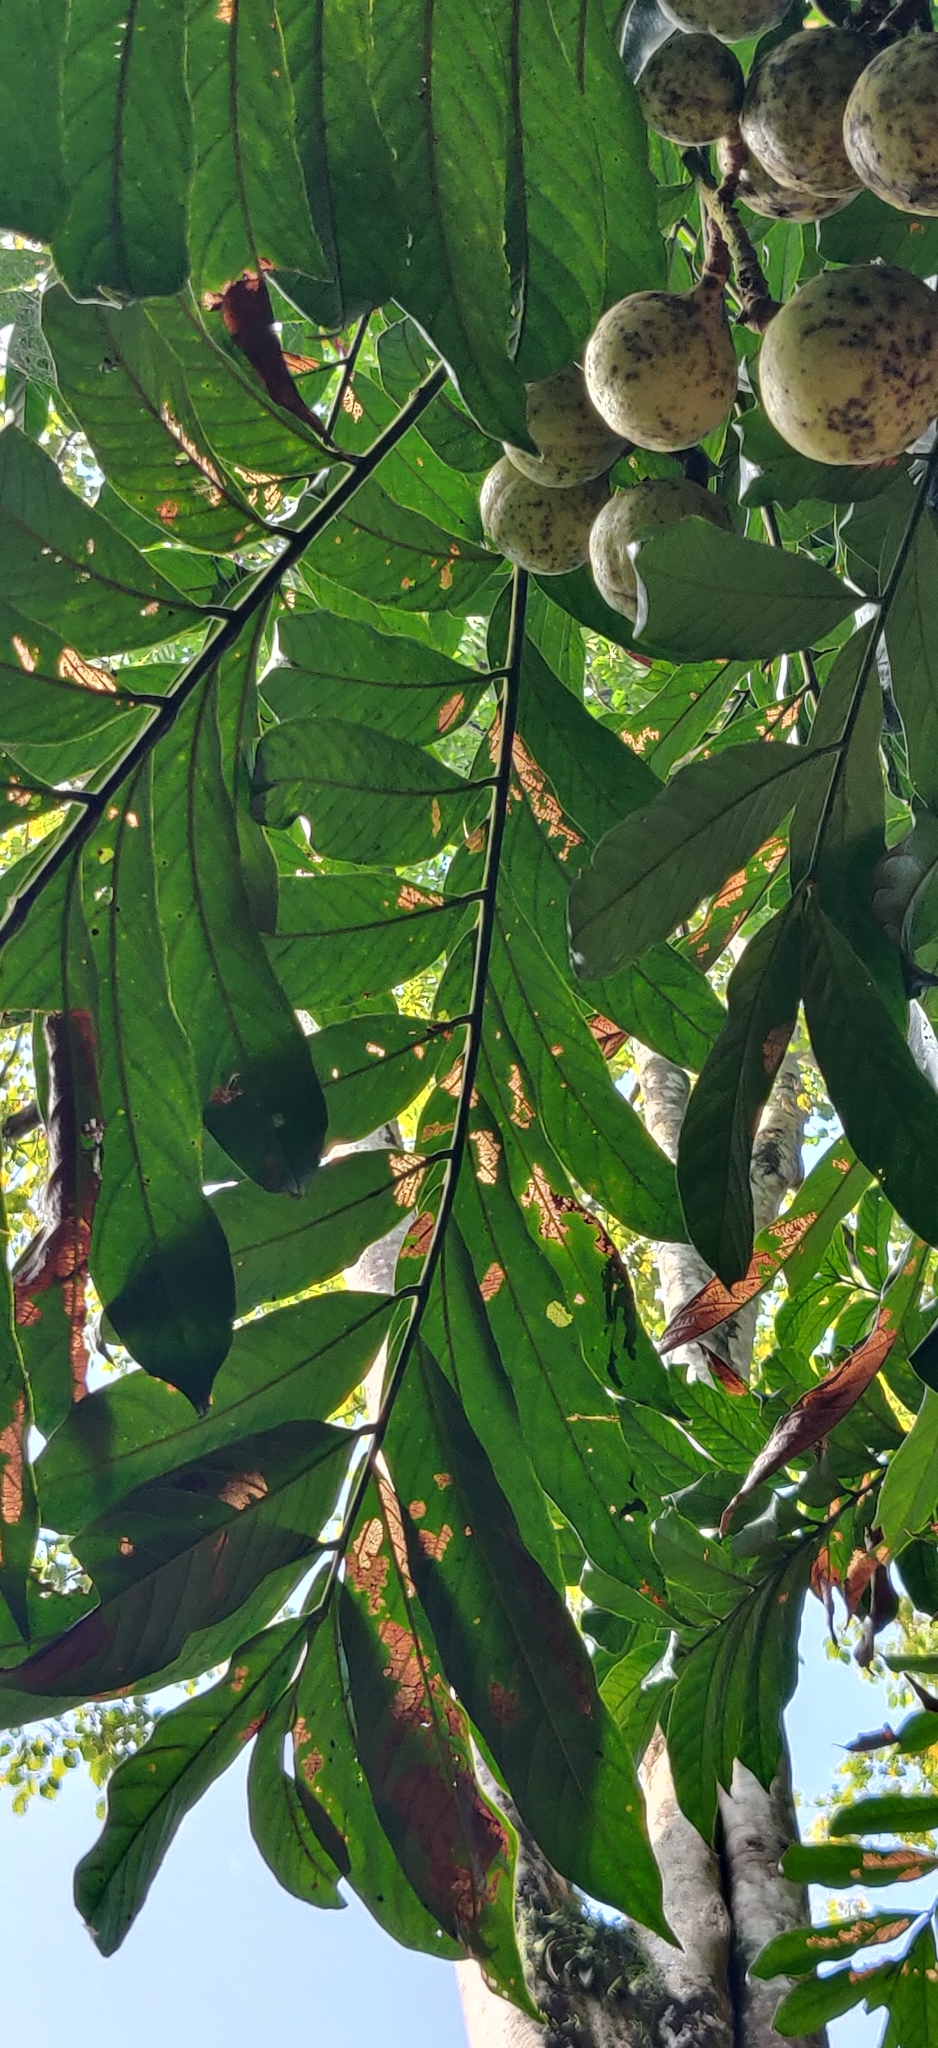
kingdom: Plantae
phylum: Tracheophyta
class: Magnoliopsida
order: Sapindales
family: Meliaceae
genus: Chisocheton
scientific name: Chisocheton cumingianus
